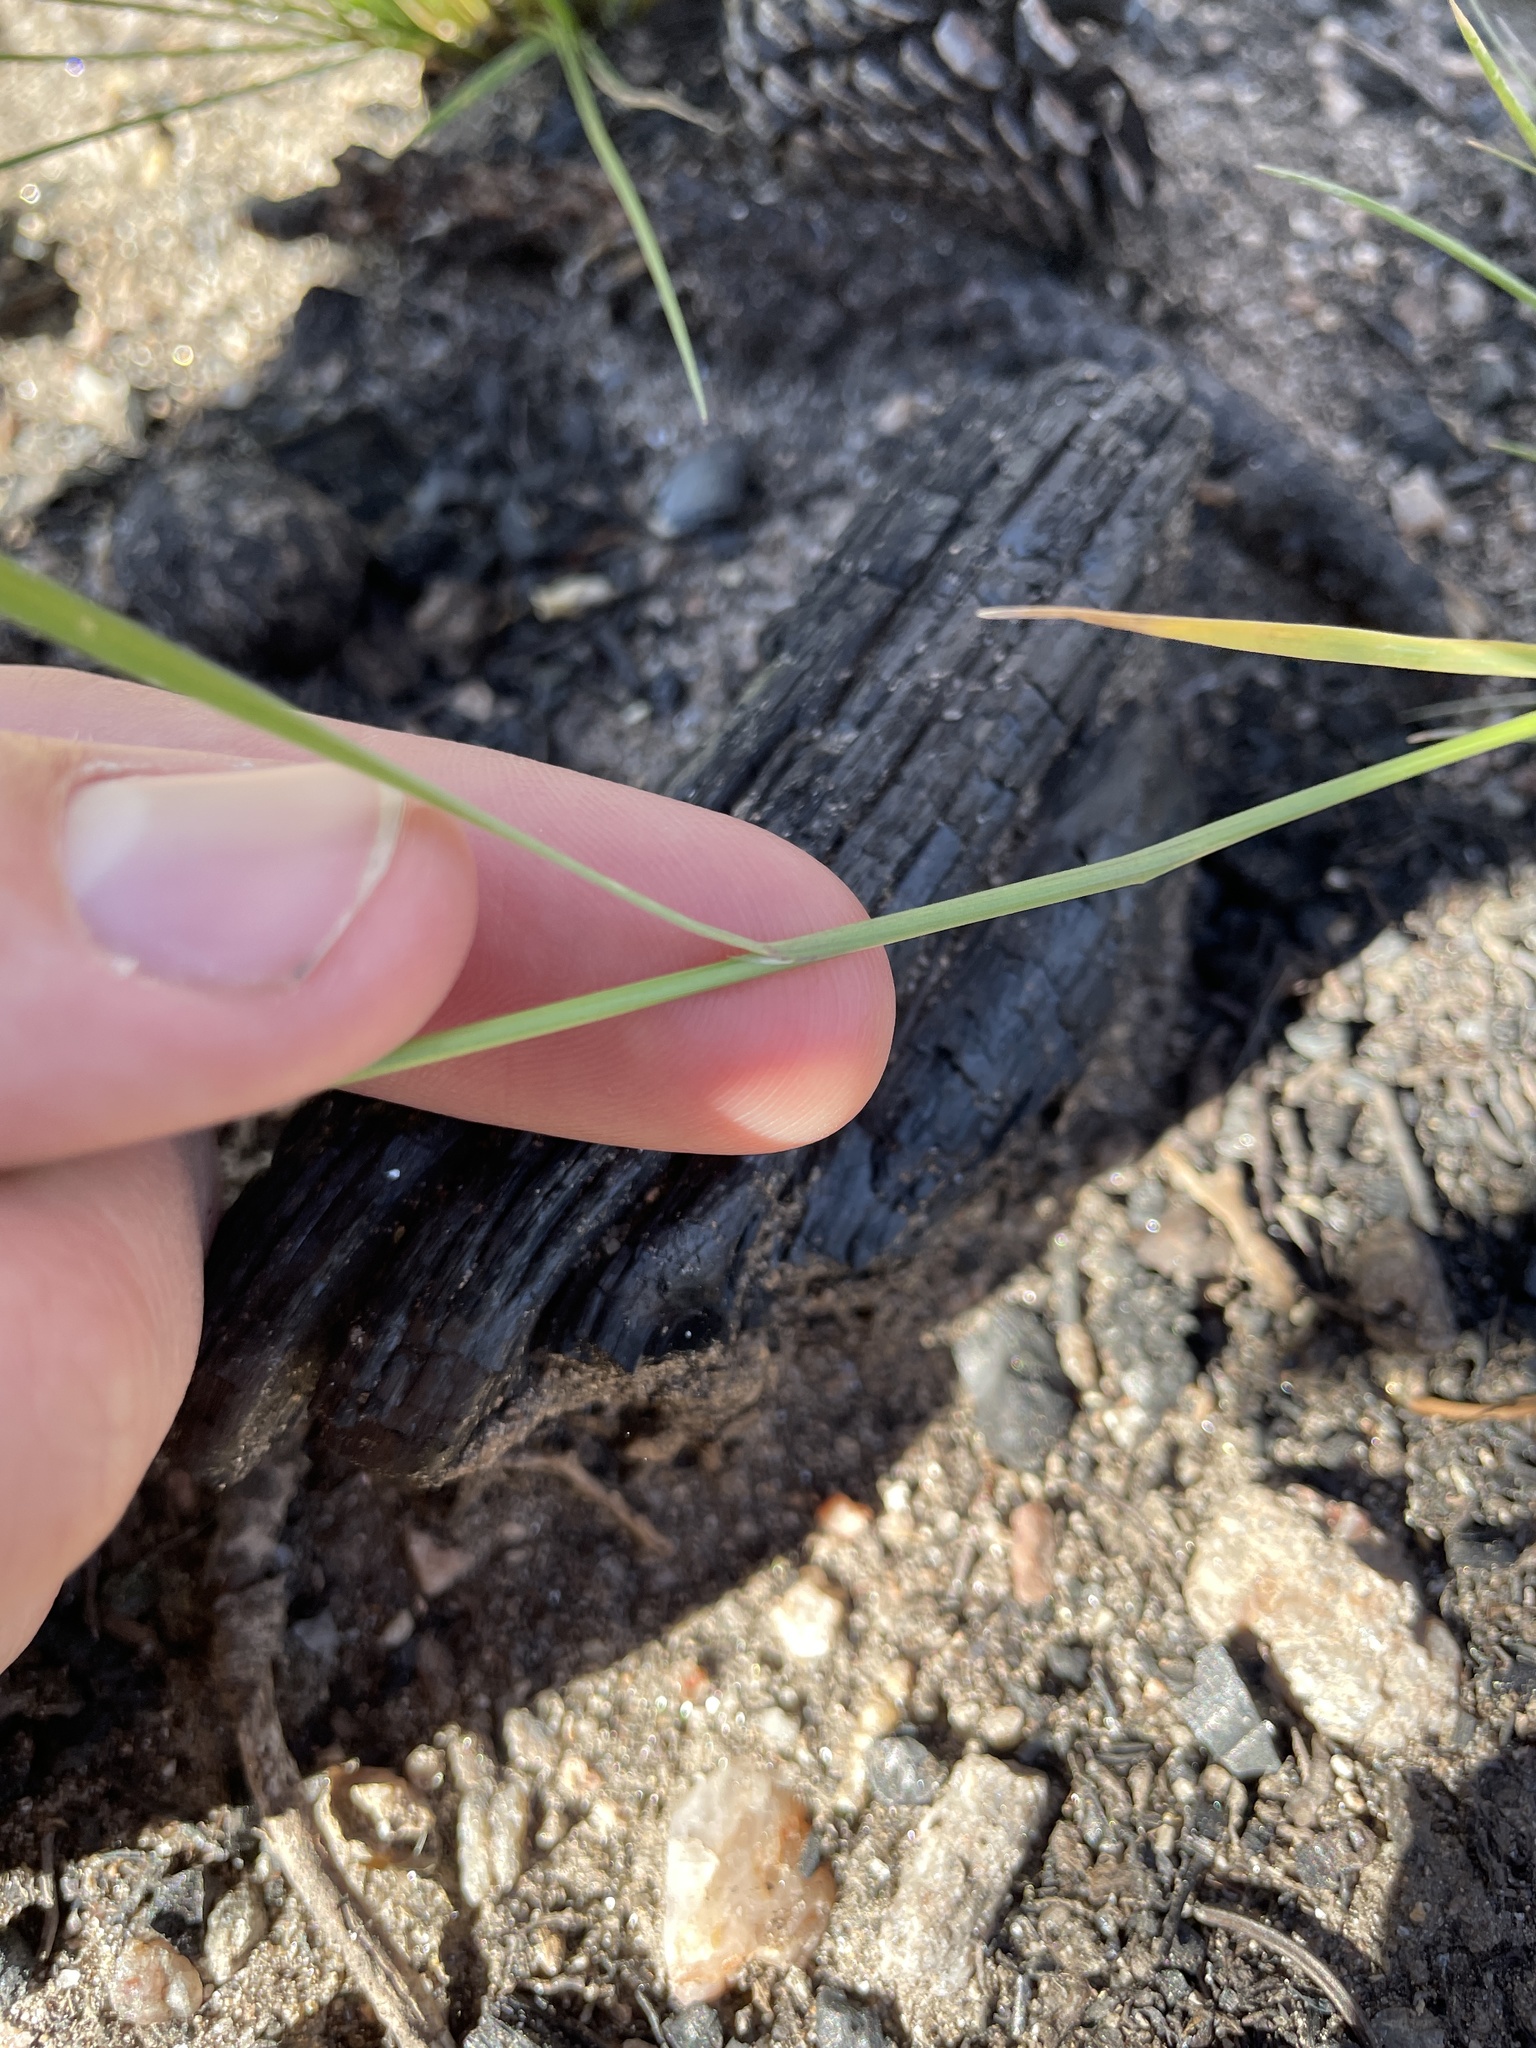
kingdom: Plantae
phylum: Tracheophyta
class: Liliopsida
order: Poales
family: Poaceae
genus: Agrostis
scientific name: Agrostis scabra
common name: Rough bent
